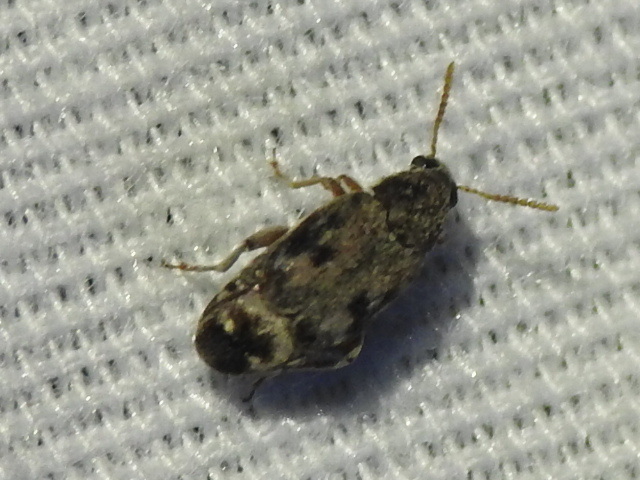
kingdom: Animalia
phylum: Arthropoda
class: Insecta
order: Coleoptera
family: Chrysomelidae
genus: Mimosestes
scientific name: Mimosestes protractus
